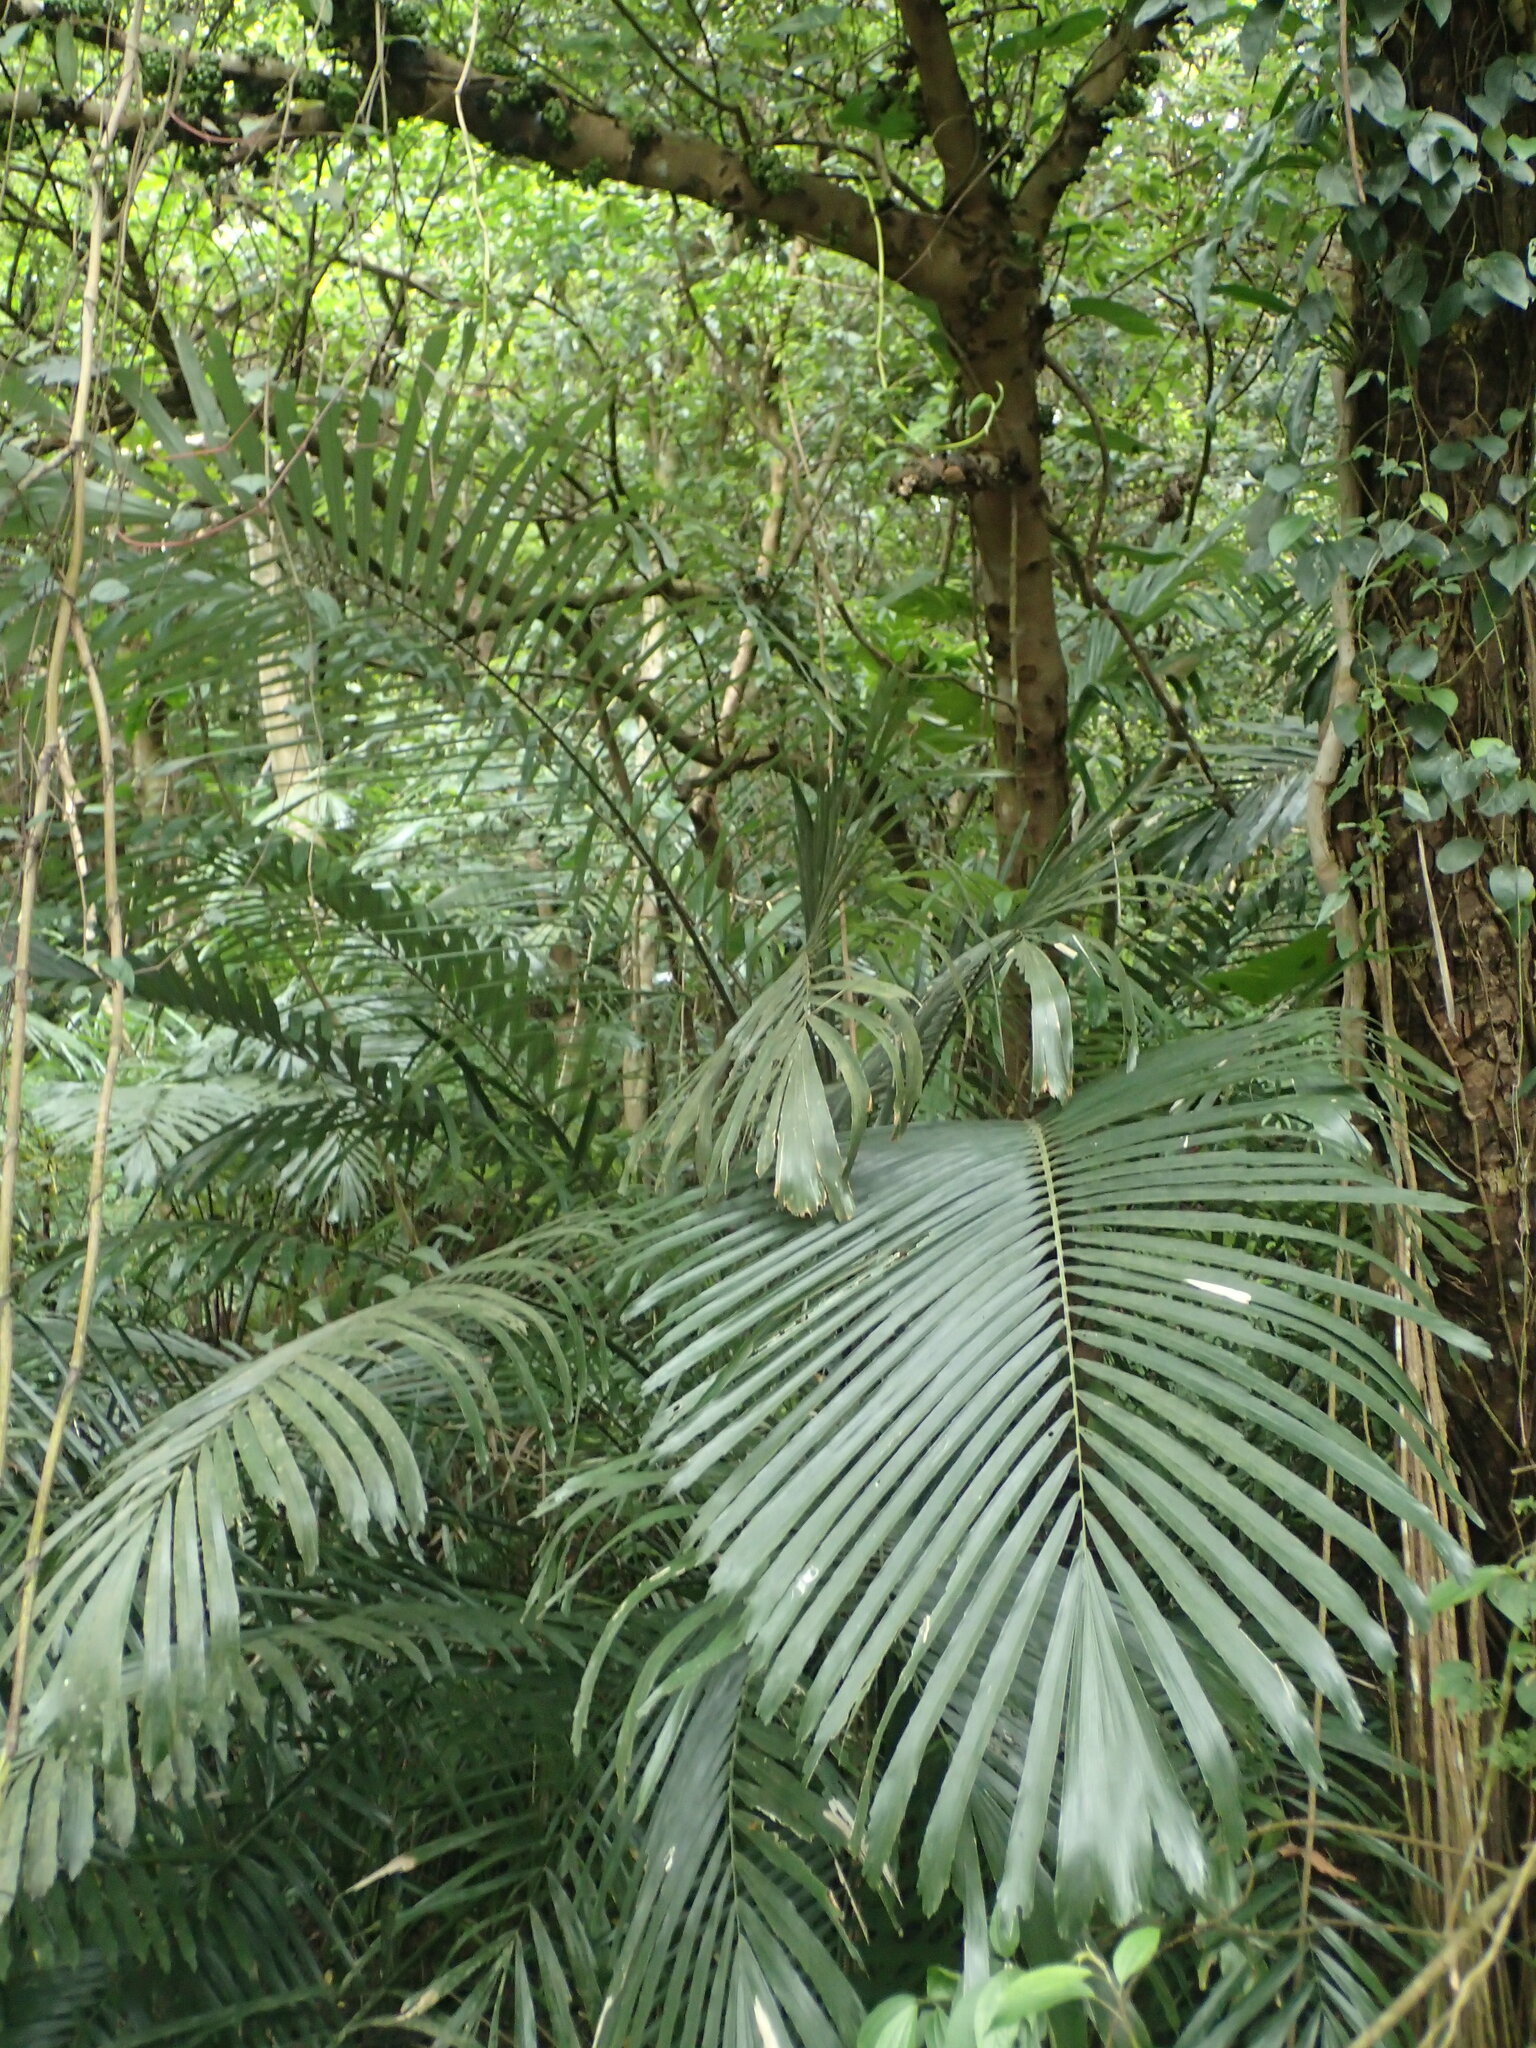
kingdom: Plantae
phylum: Tracheophyta
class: Liliopsida
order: Arecales
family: Arecaceae
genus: Arenga
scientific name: Arenga engleri
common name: Formosan sugar palm
